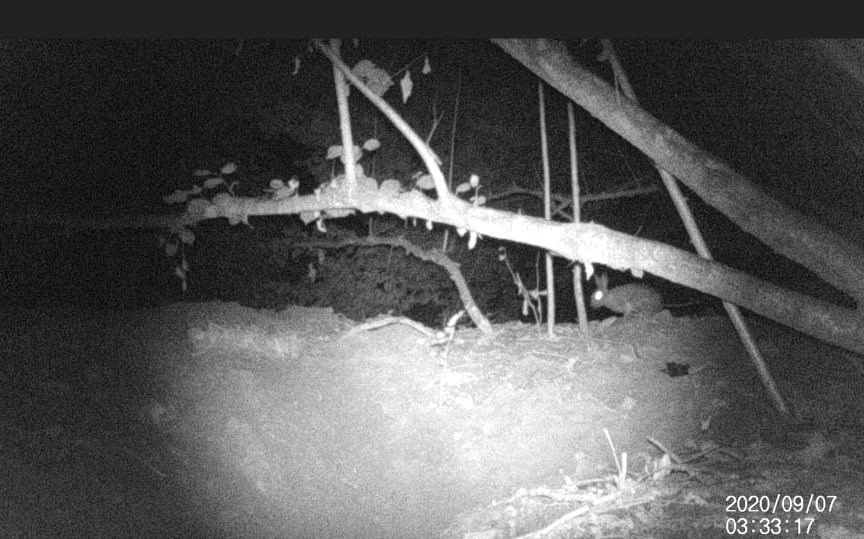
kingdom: Animalia
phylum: Chordata
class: Mammalia
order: Lagomorpha
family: Leporidae
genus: Oryctolagus
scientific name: Oryctolagus cuniculus
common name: European rabbit
